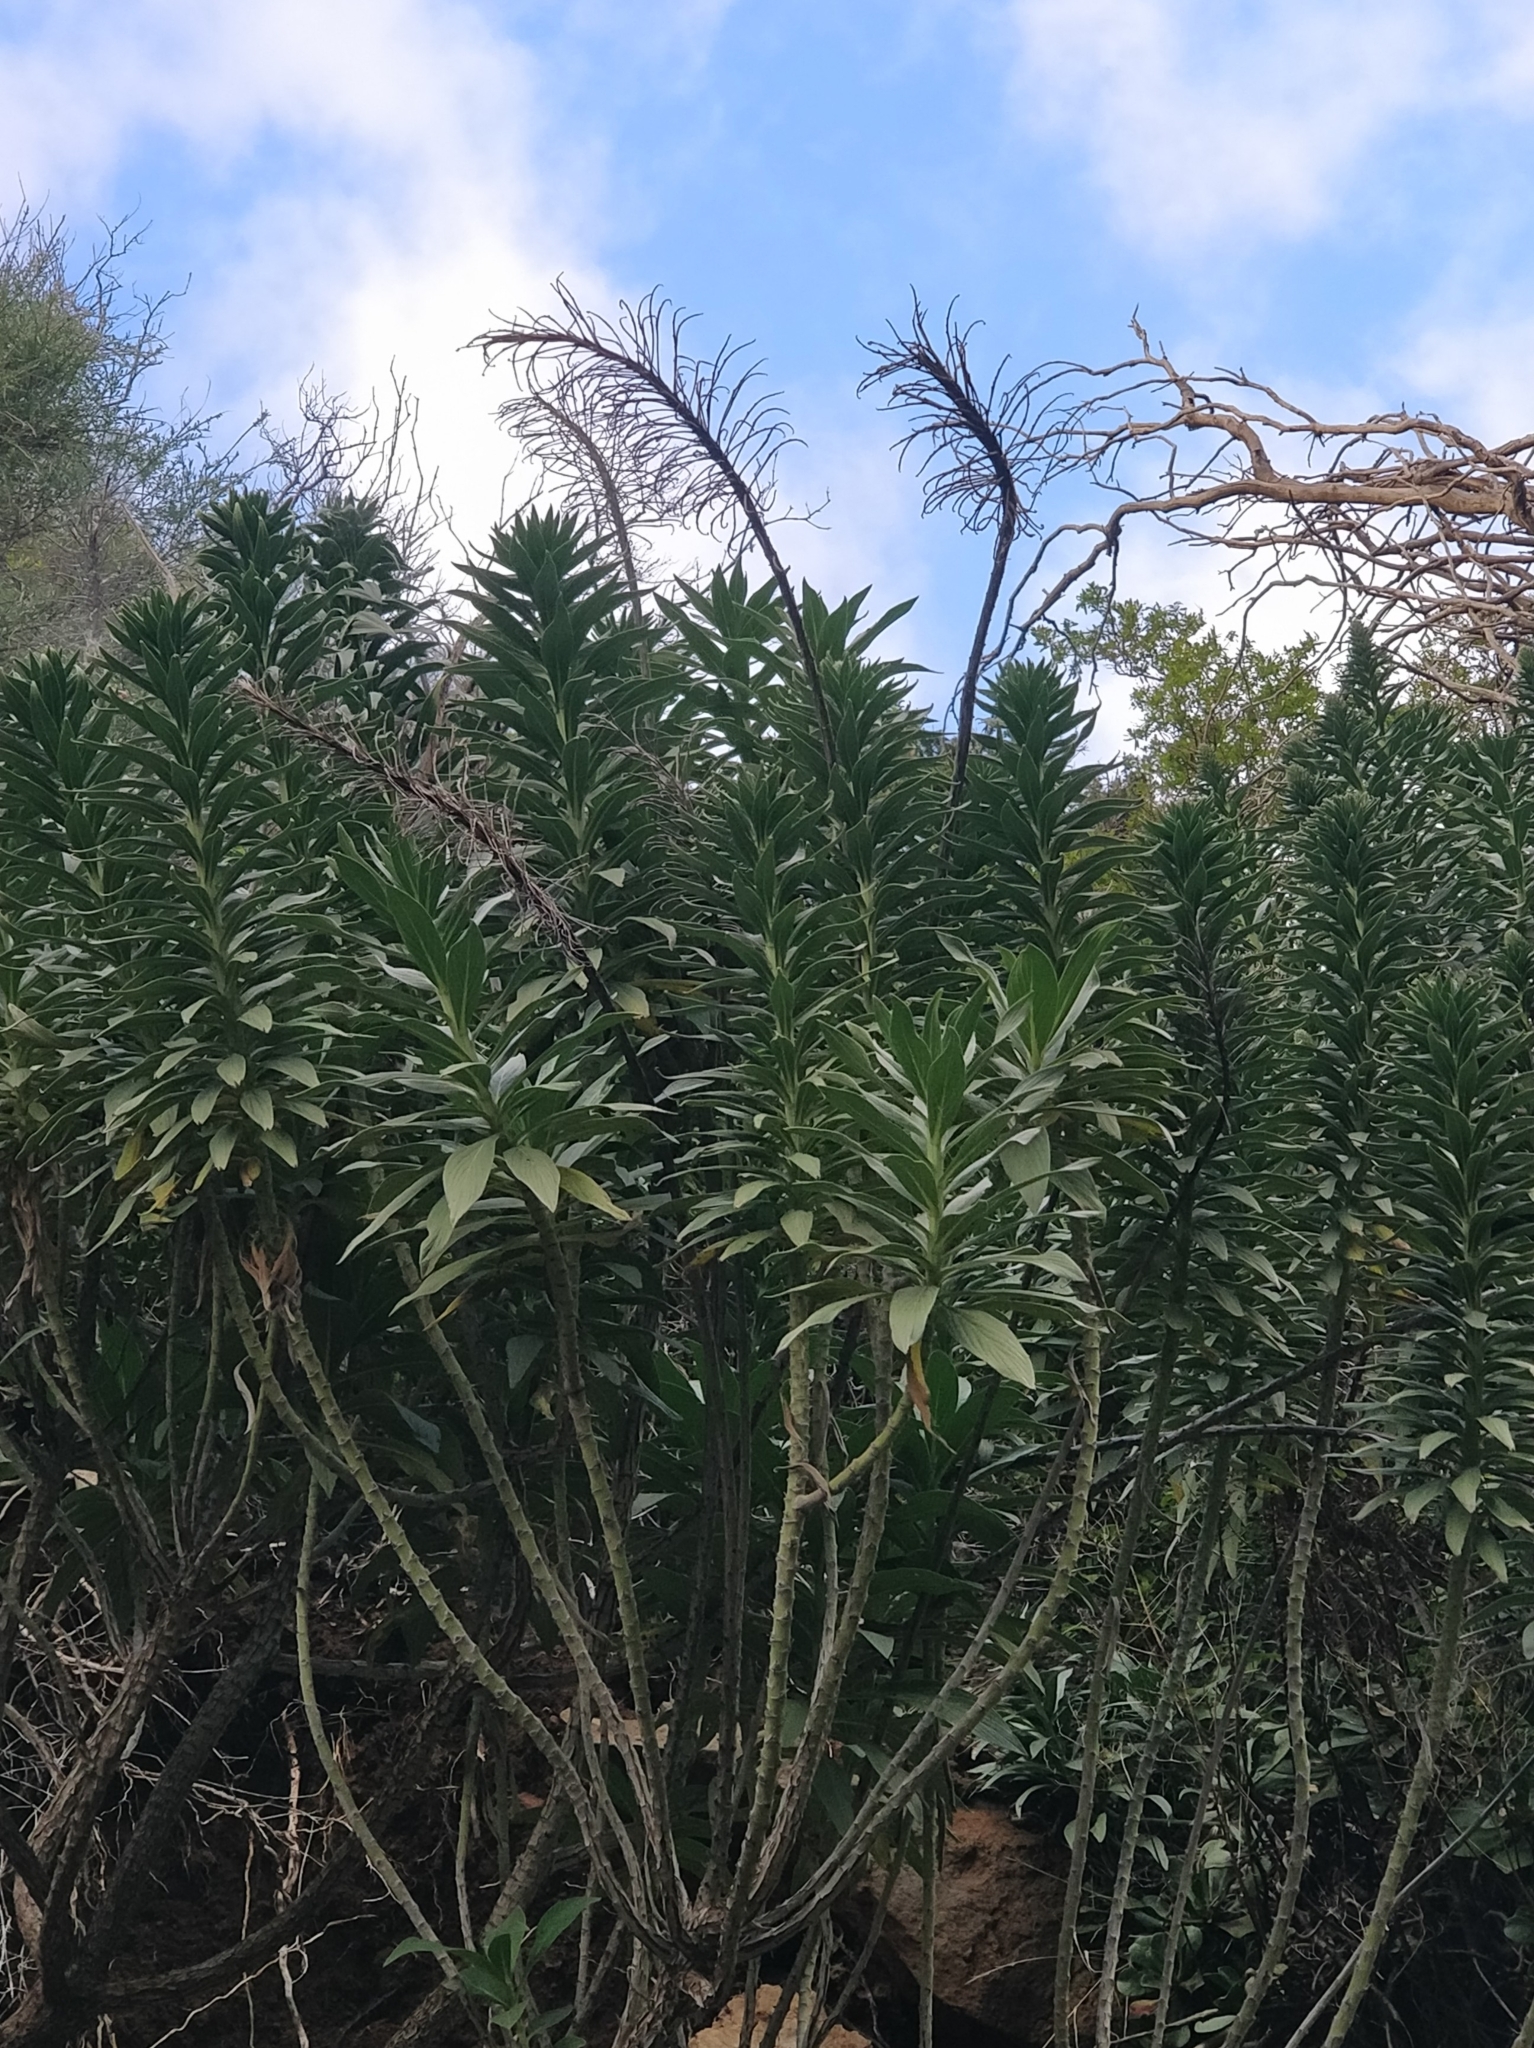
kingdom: Plantae
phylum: Tracheophyta
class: Magnoliopsida
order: Boraginales
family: Boraginaceae
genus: Echium
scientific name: Echium nervosum
